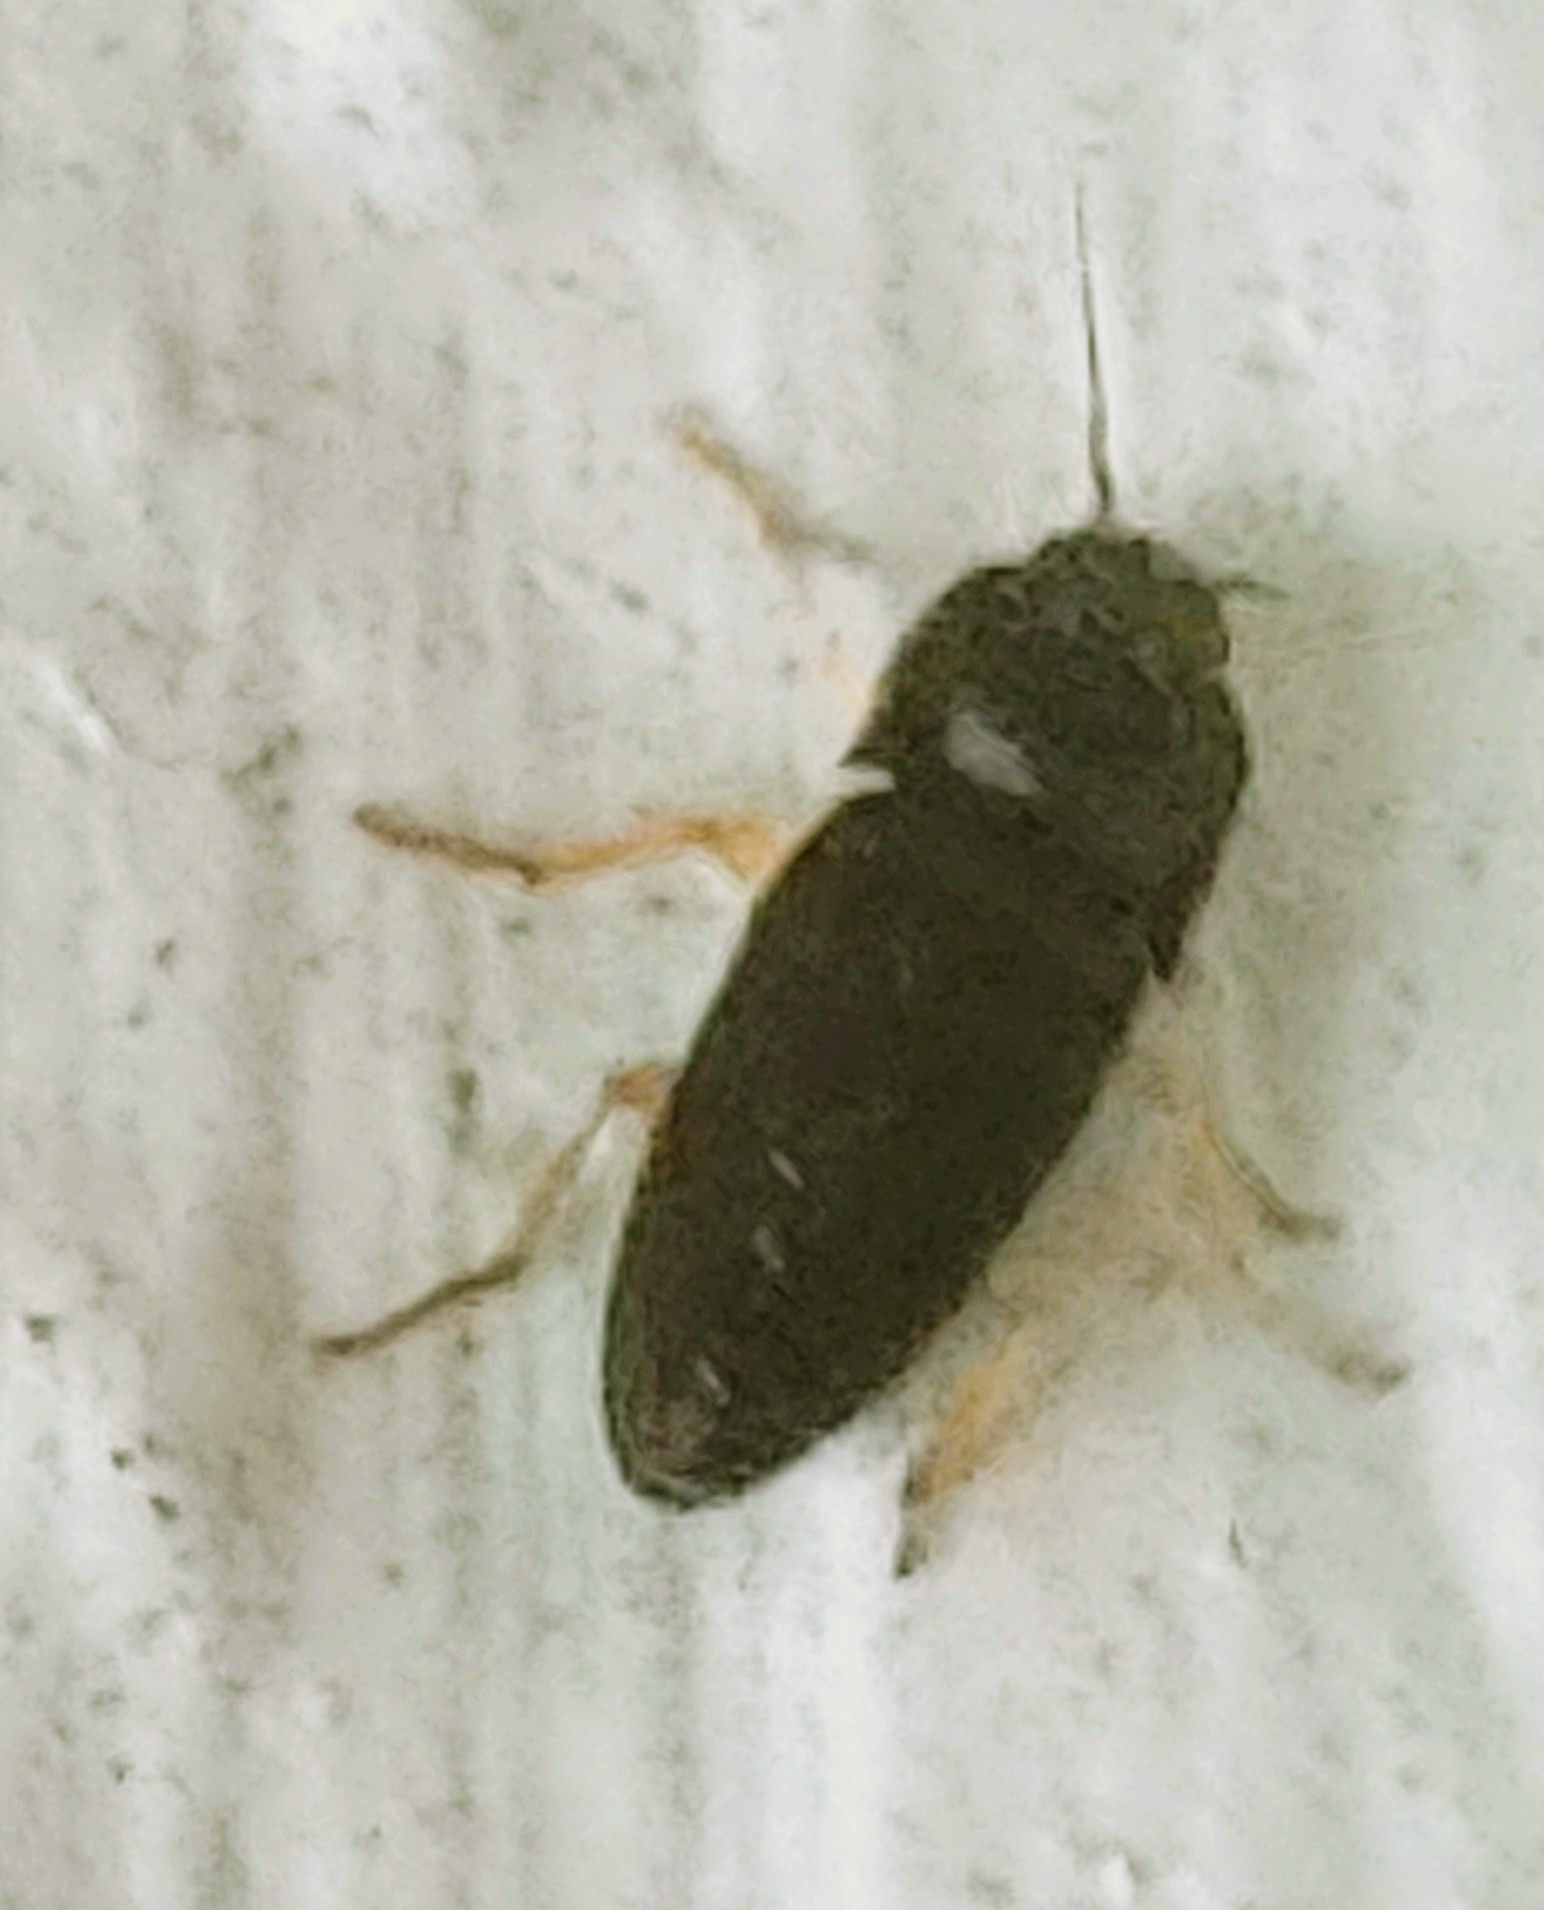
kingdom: Animalia
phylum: Arthropoda
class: Insecta
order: Coleoptera
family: Elateridae
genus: Heteroderes
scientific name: Heteroderes amplicollis
